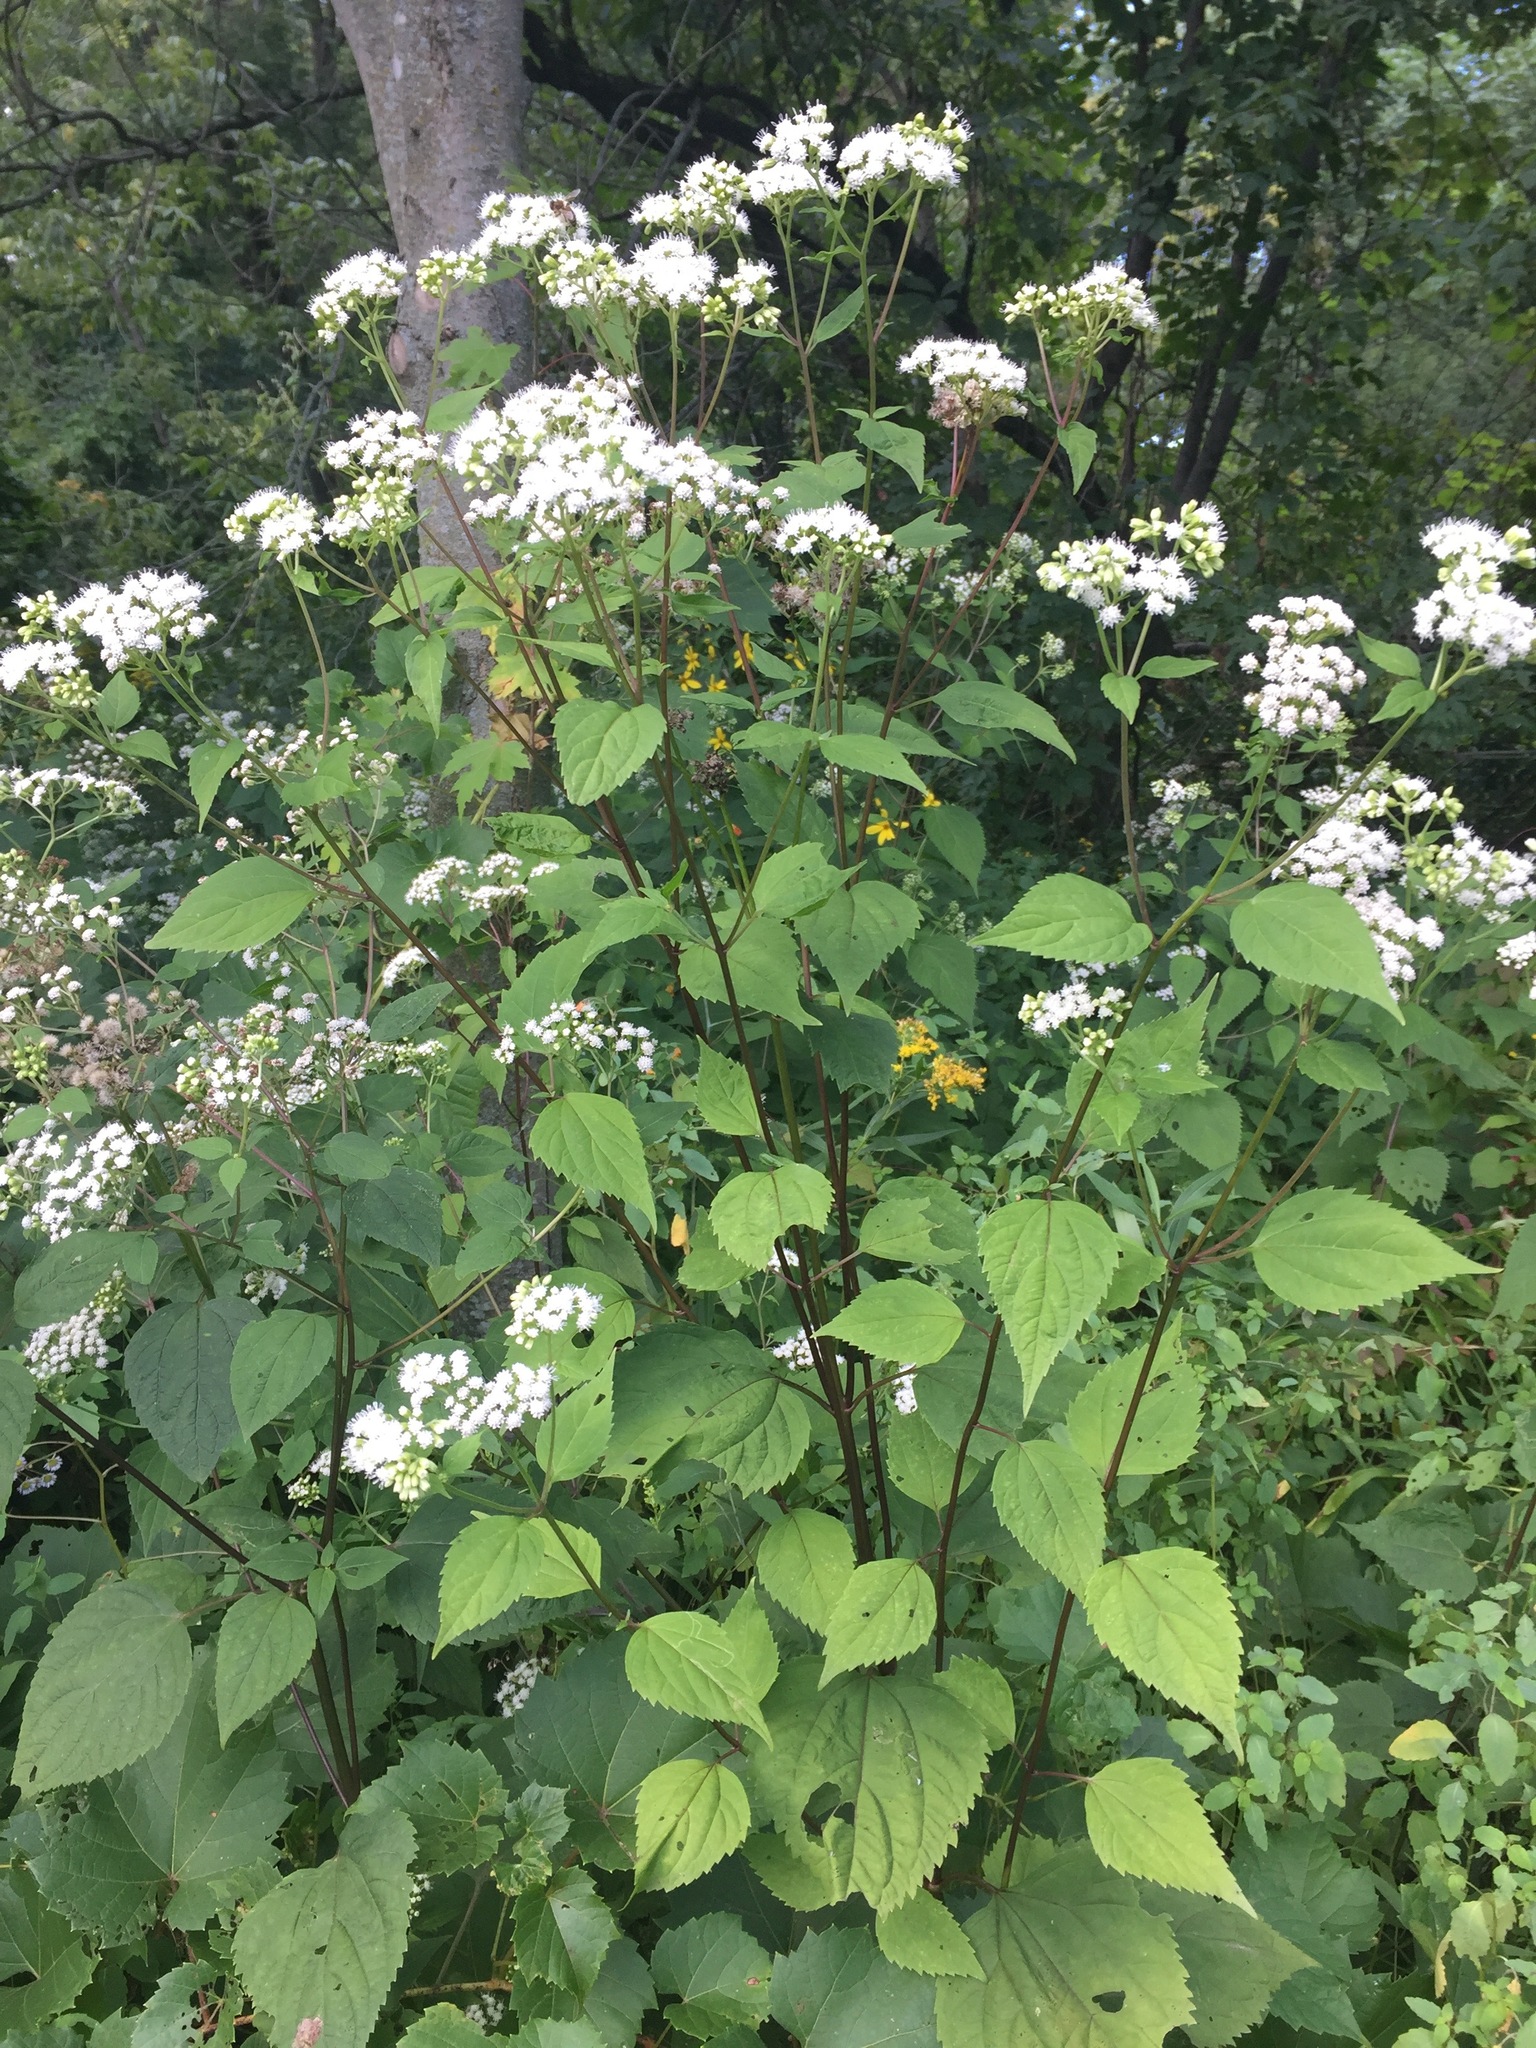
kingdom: Plantae
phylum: Tracheophyta
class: Magnoliopsida
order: Asterales
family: Asteraceae
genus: Ageratina
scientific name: Ageratina altissima
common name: White snakeroot
